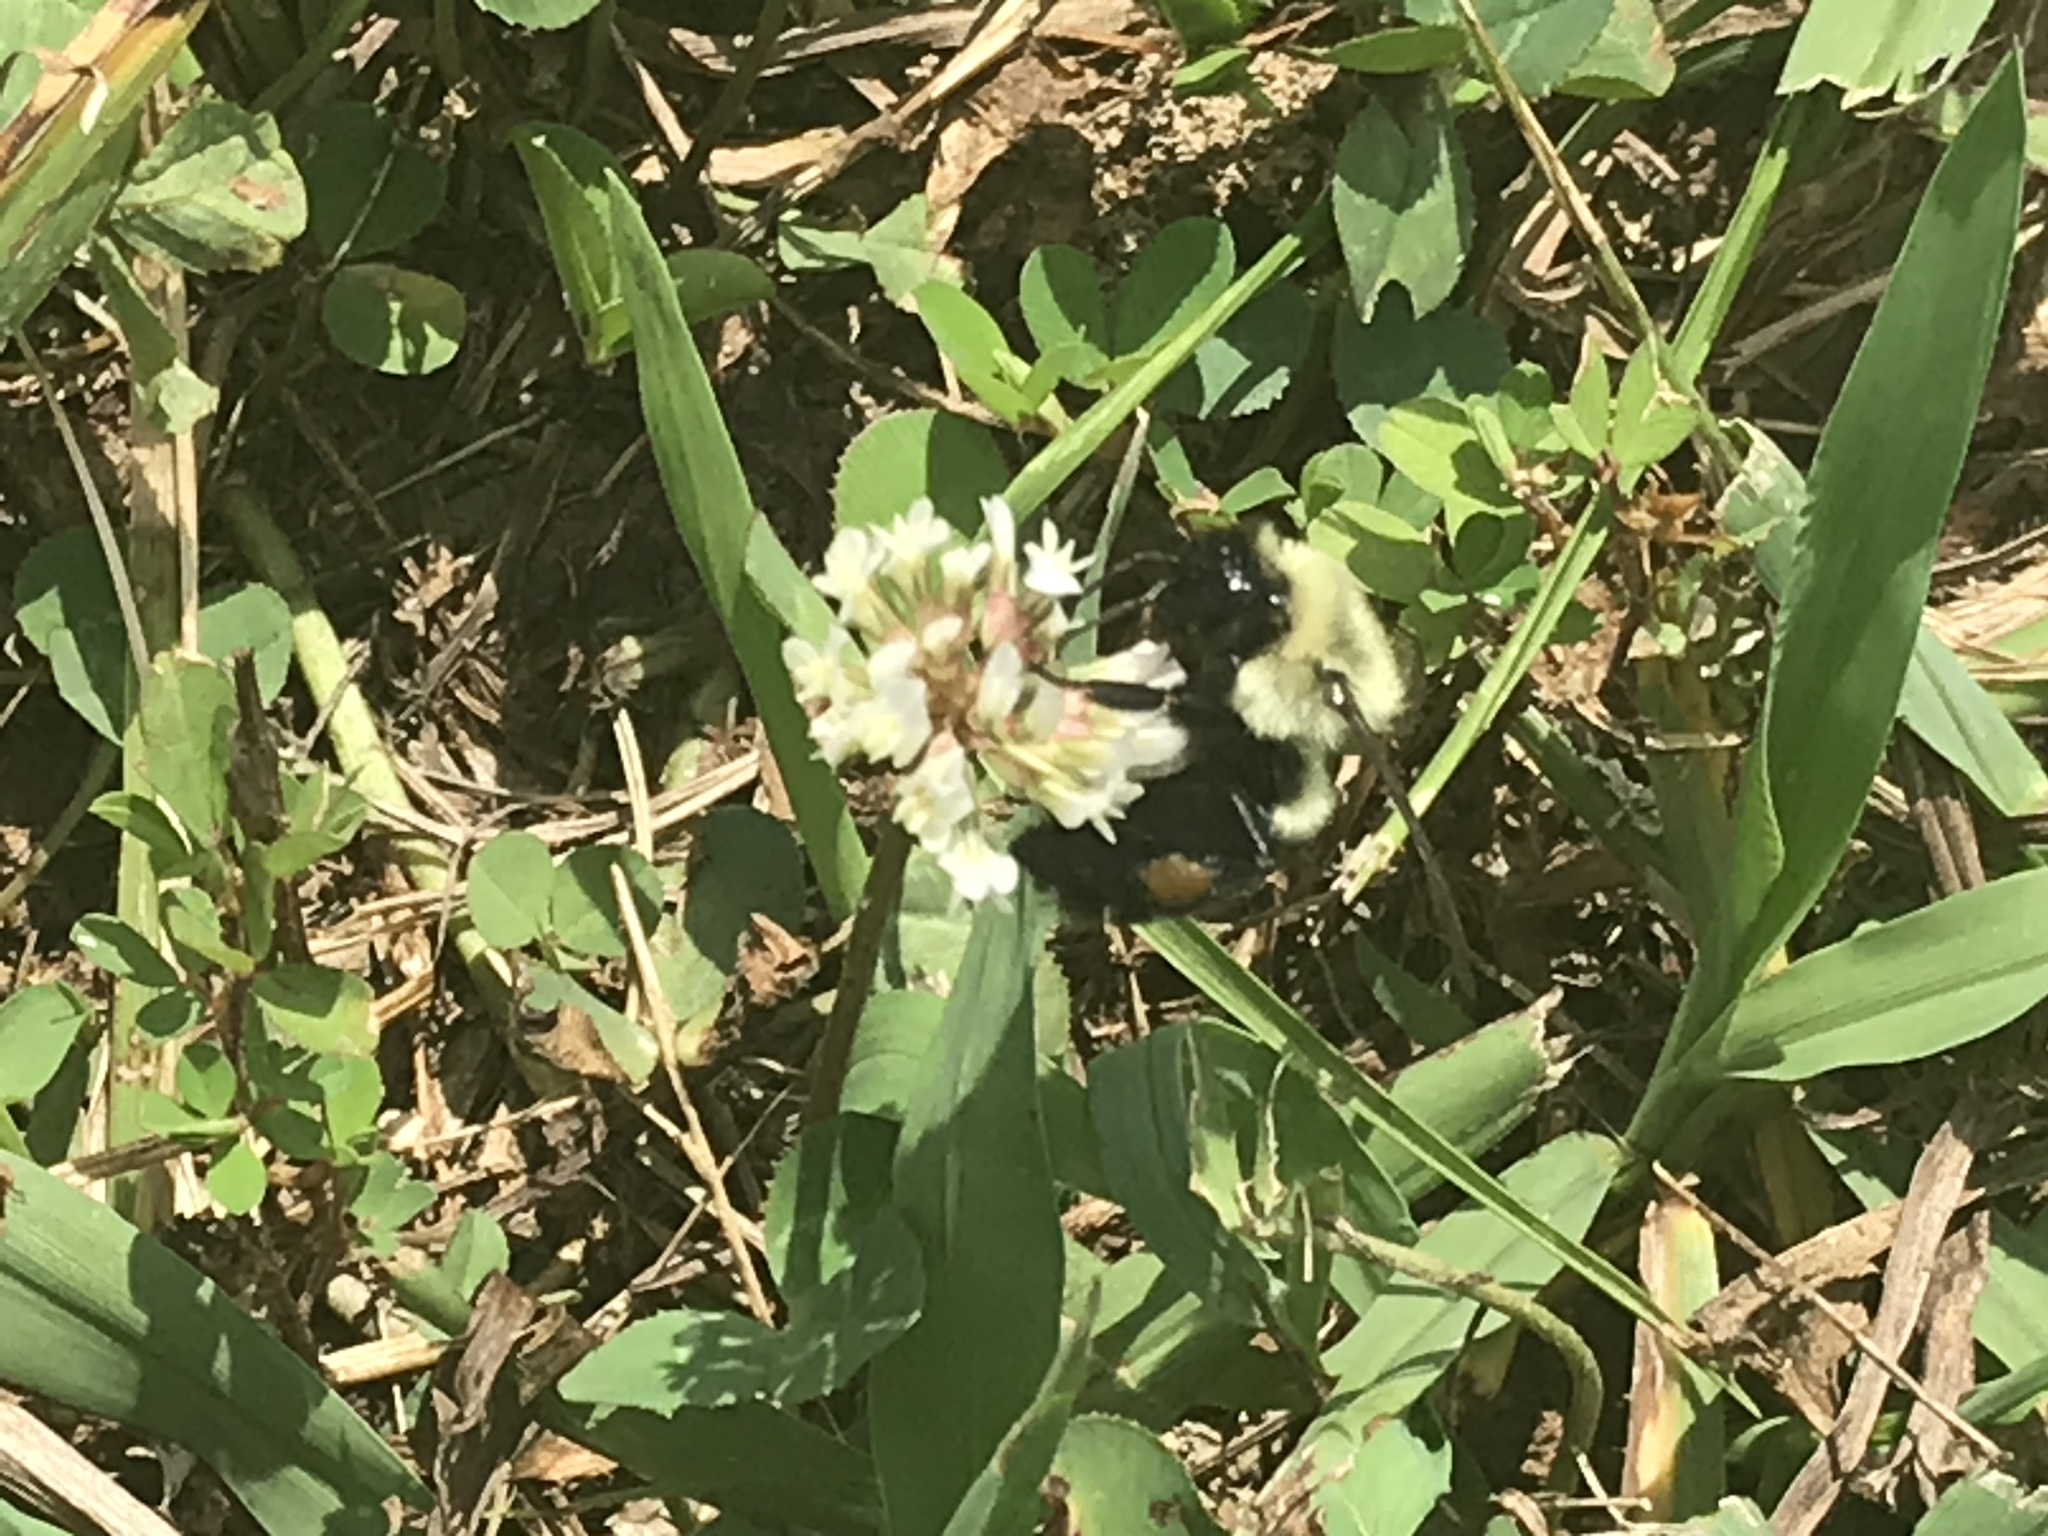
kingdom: Animalia
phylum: Arthropoda
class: Insecta
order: Hymenoptera
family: Apidae
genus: Bombus
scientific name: Bombus impatiens
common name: Common eastern bumble bee
